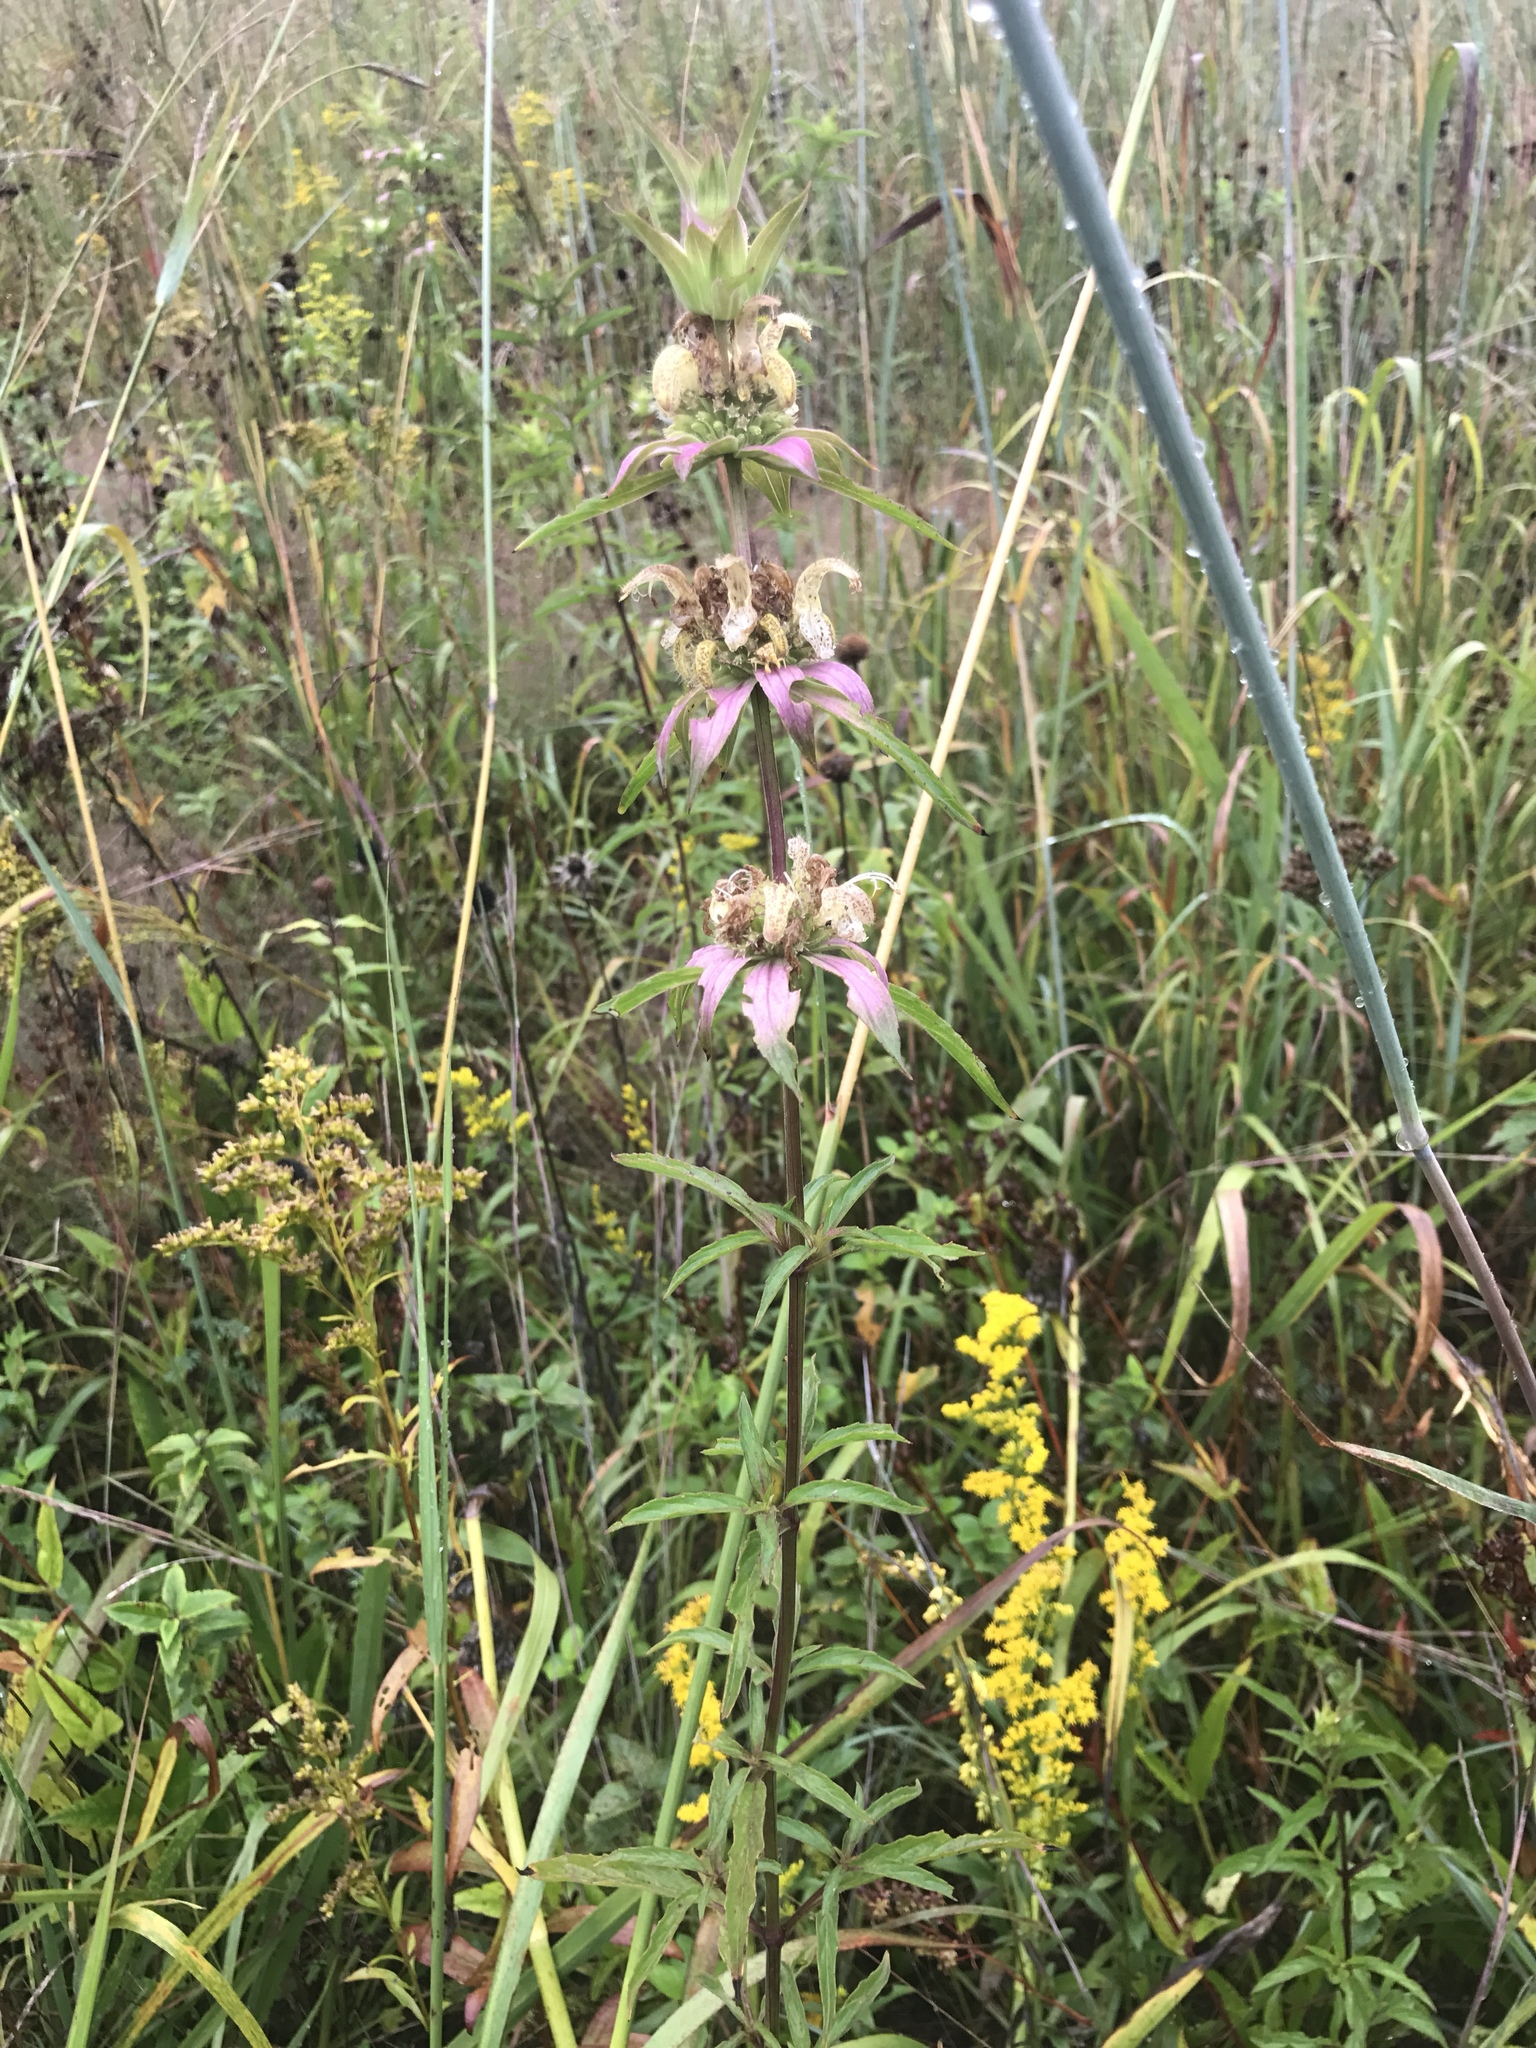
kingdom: Plantae
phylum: Tracheophyta
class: Magnoliopsida
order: Lamiales
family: Lamiaceae
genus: Monarda
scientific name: Monarda punctata
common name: Dotted monarda
